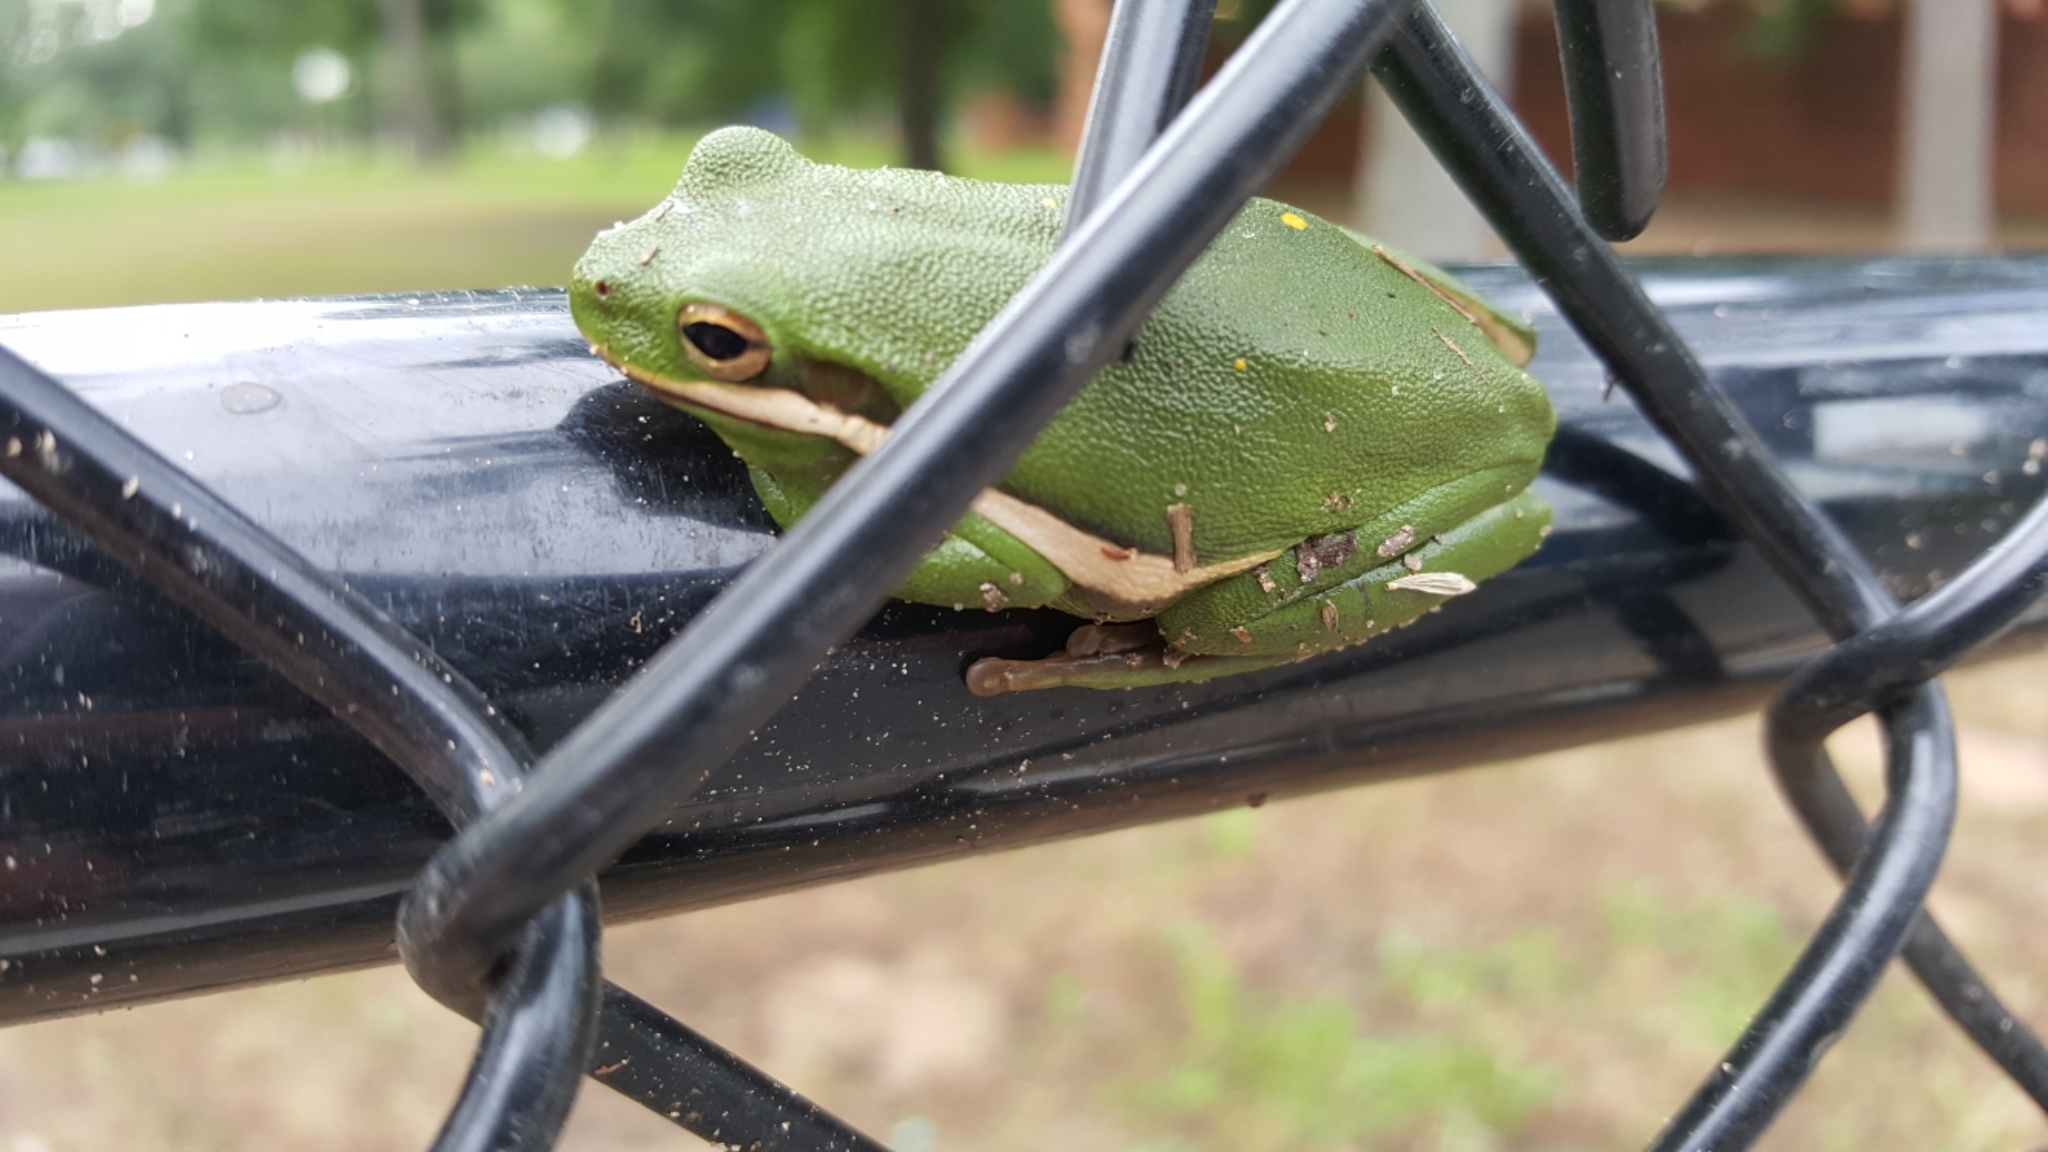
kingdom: Animalia
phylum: Chordata
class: Amphibia
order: Anura
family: Hylidae
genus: Dryophytes
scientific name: Dryophytes cinereus
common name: Green treefrog
